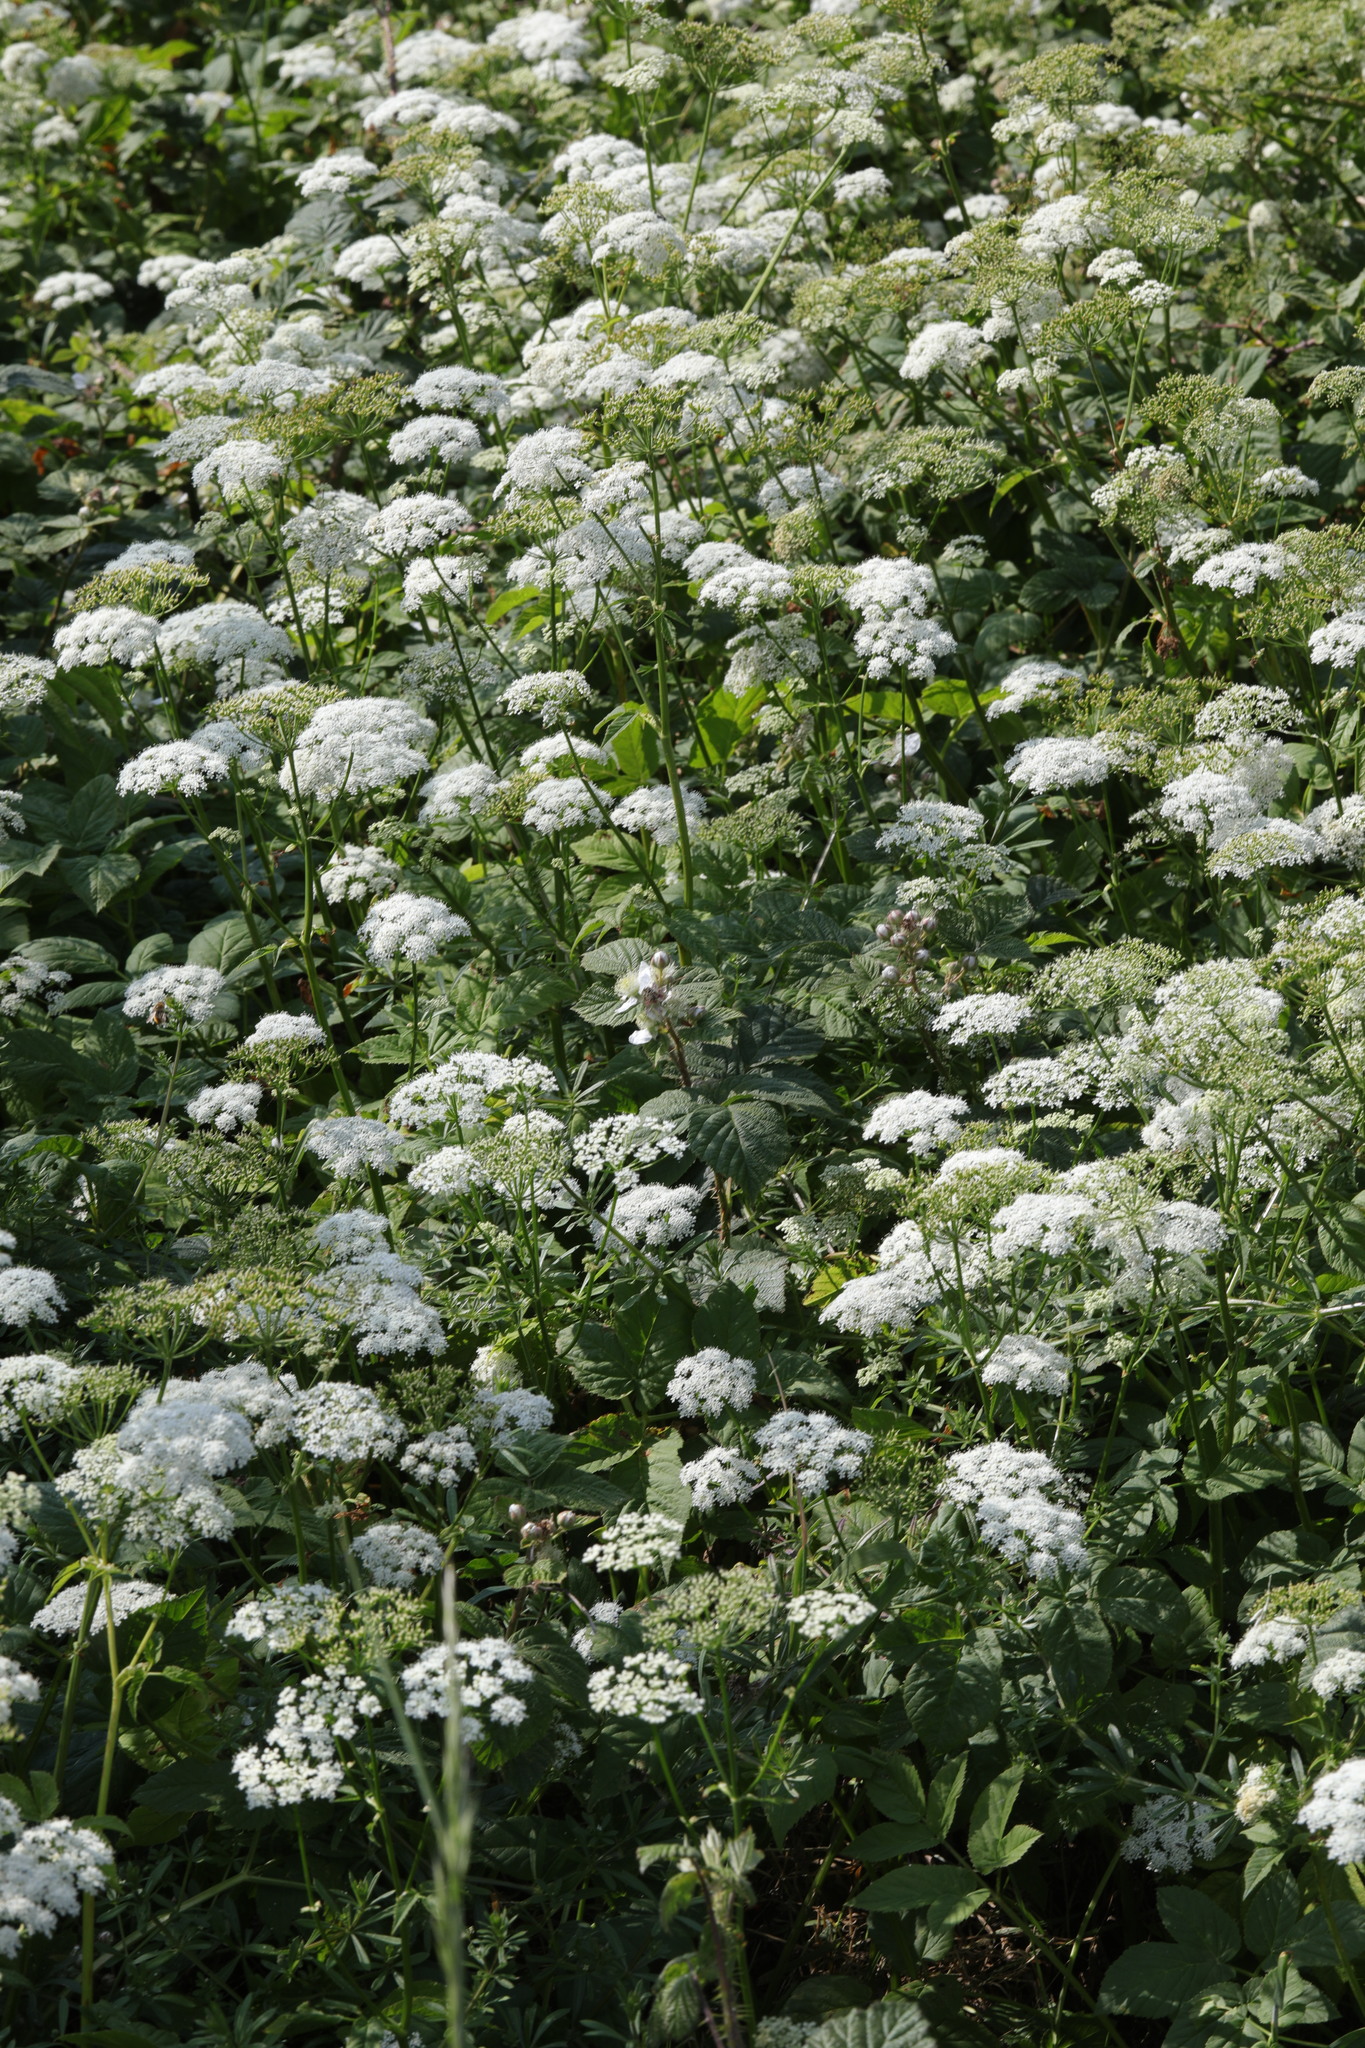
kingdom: Plantae
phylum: Tracheophyta
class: Magnoliopsida
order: Apiales
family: Apiaceae
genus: Aegopodium
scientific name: Aegopodium podagraria
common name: Ground-elder
